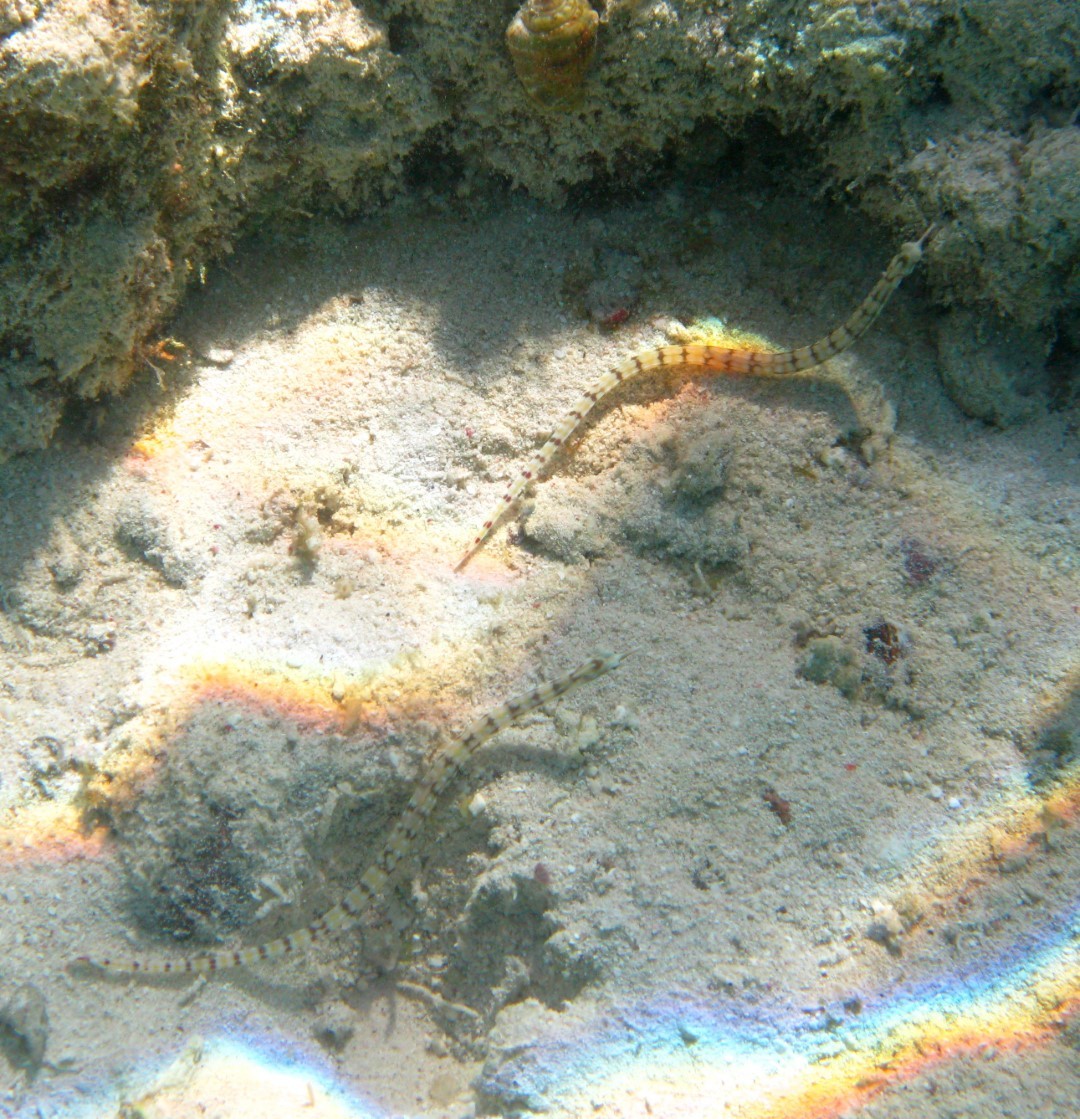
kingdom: Animalia
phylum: Chordata
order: Syngnathiformes
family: Syngnathidae
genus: Corythoichthys
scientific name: Corythoichthys flavofasciatus
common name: Banded pipefish
